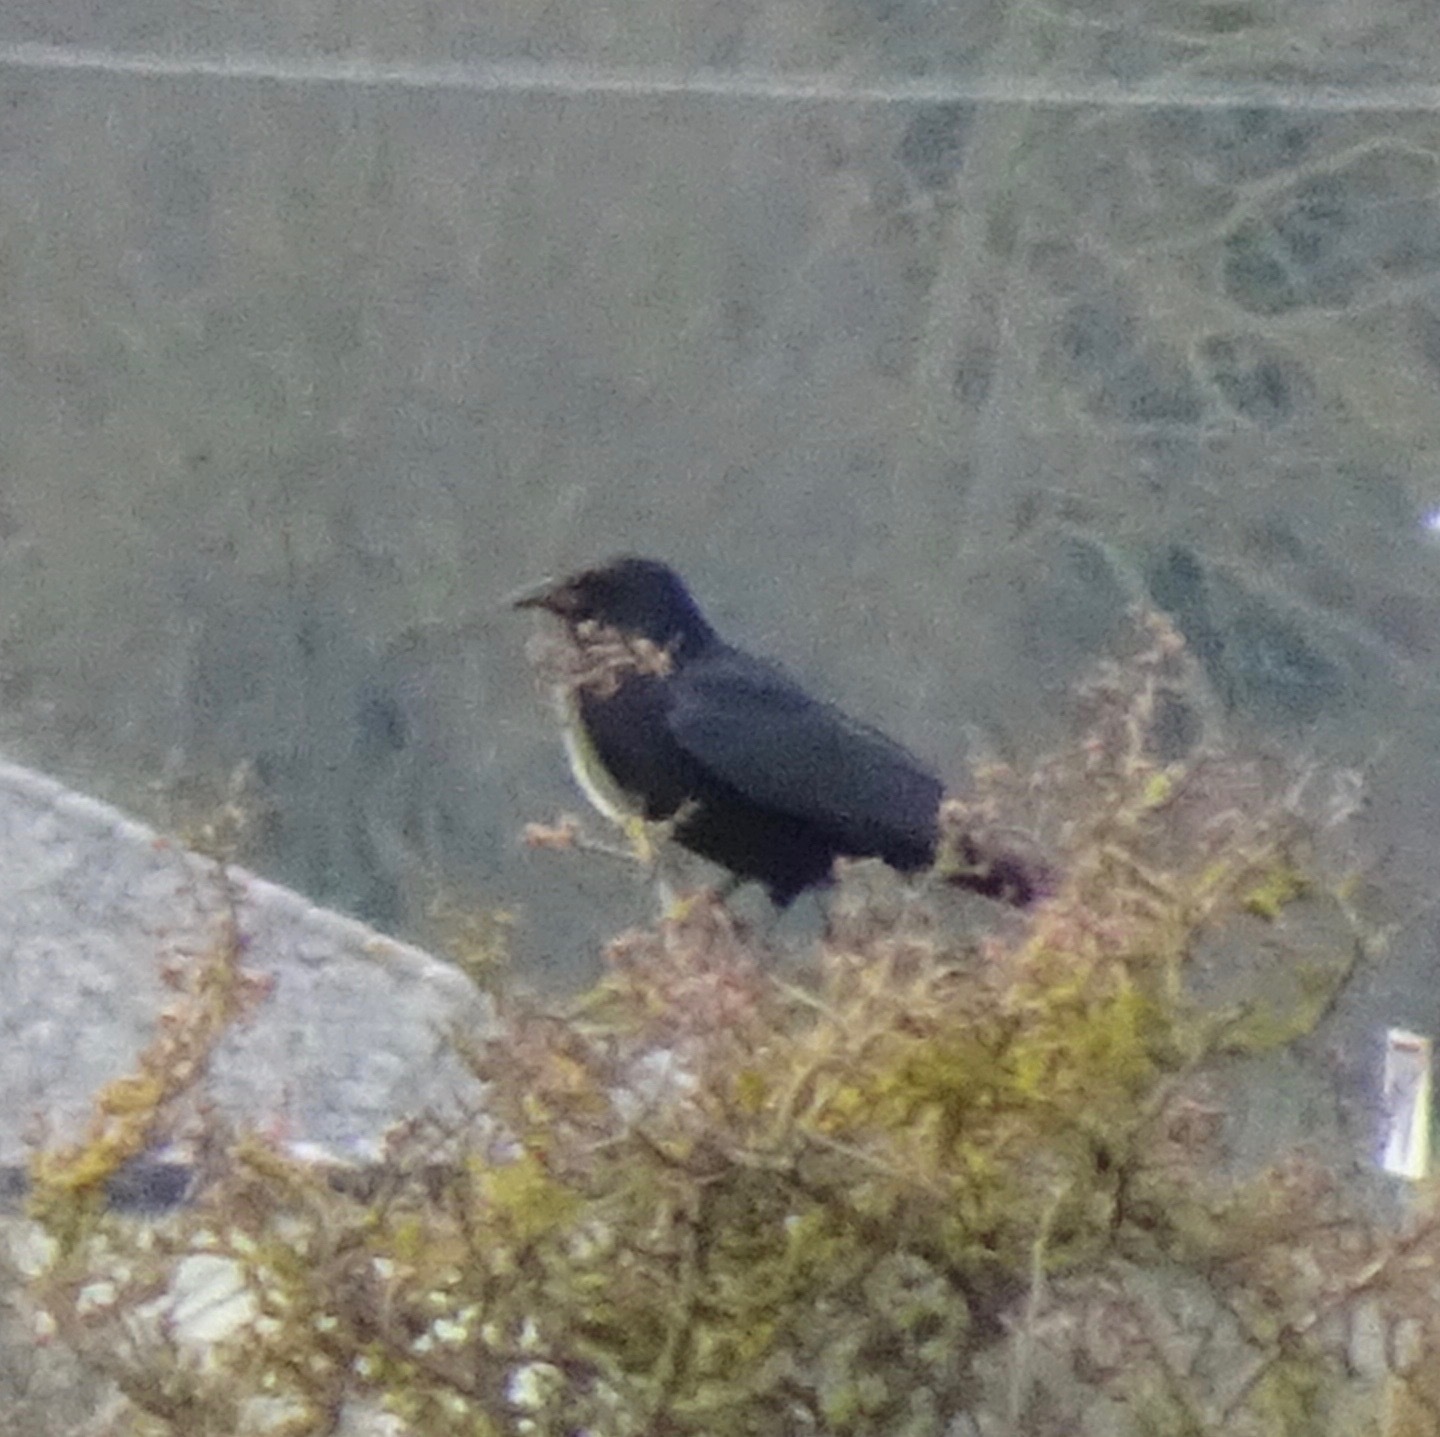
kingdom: Animalia
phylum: Chordata
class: Aves
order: Passeriformes
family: Corvidae
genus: Corvus
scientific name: Corvus corone
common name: Carrion crow
